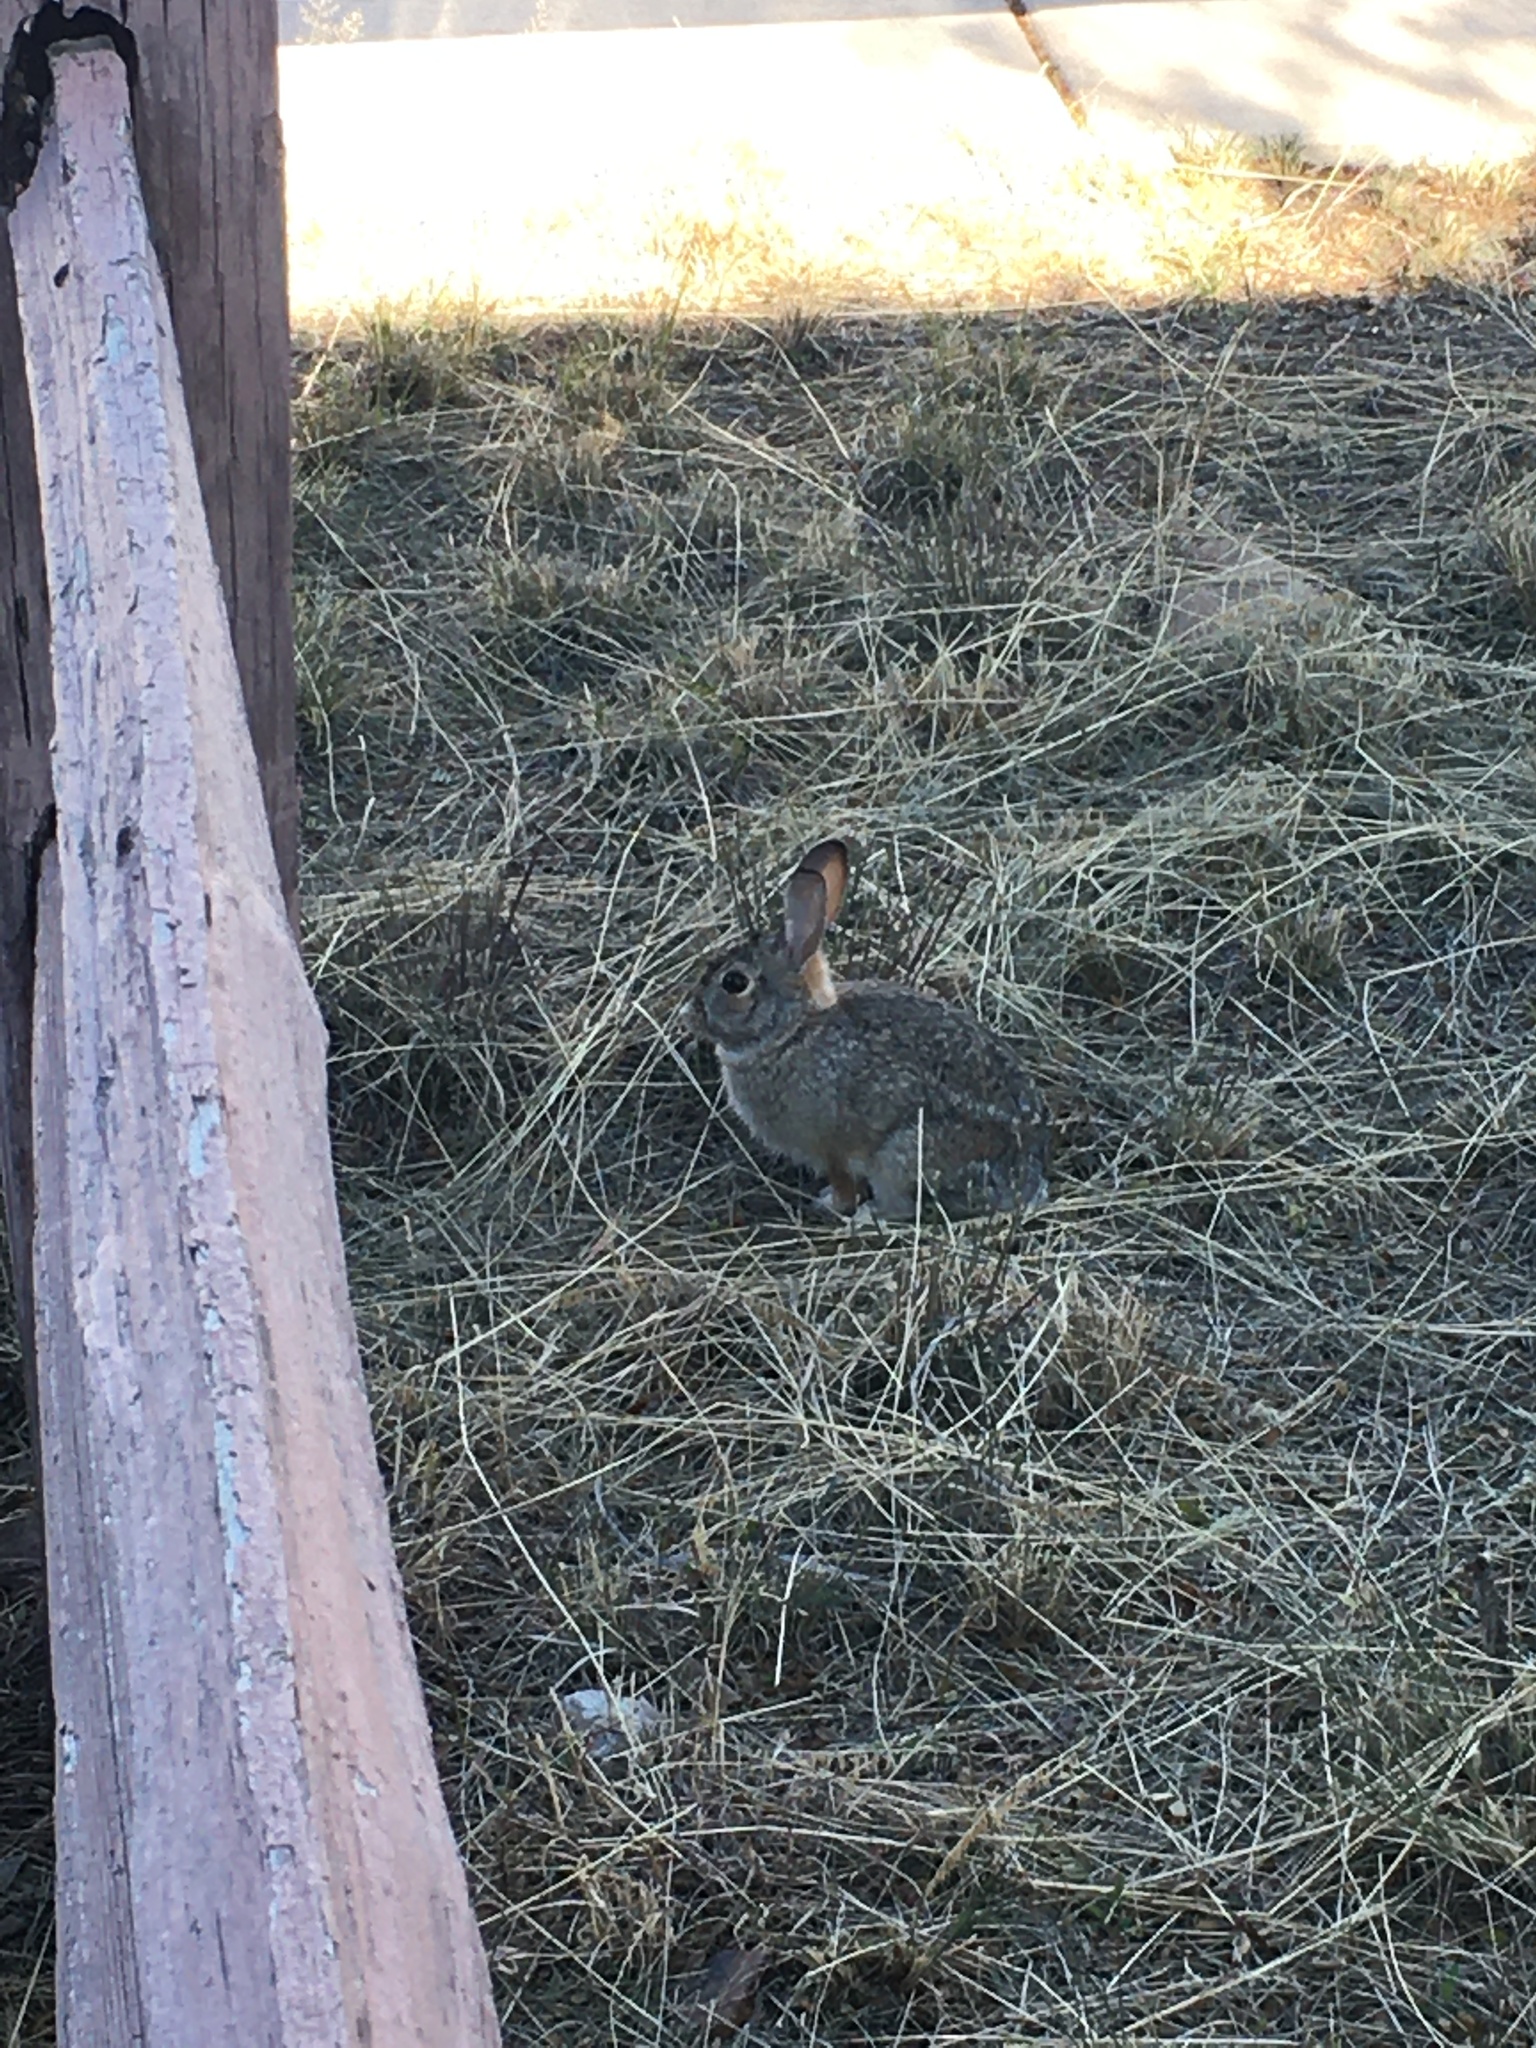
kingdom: Animalia
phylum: Chordata
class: Mammalia
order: Lagomorpha
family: Leporidae
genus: Sylvilagus
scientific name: Sylvilagus audubonii
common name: Desert cottontail
